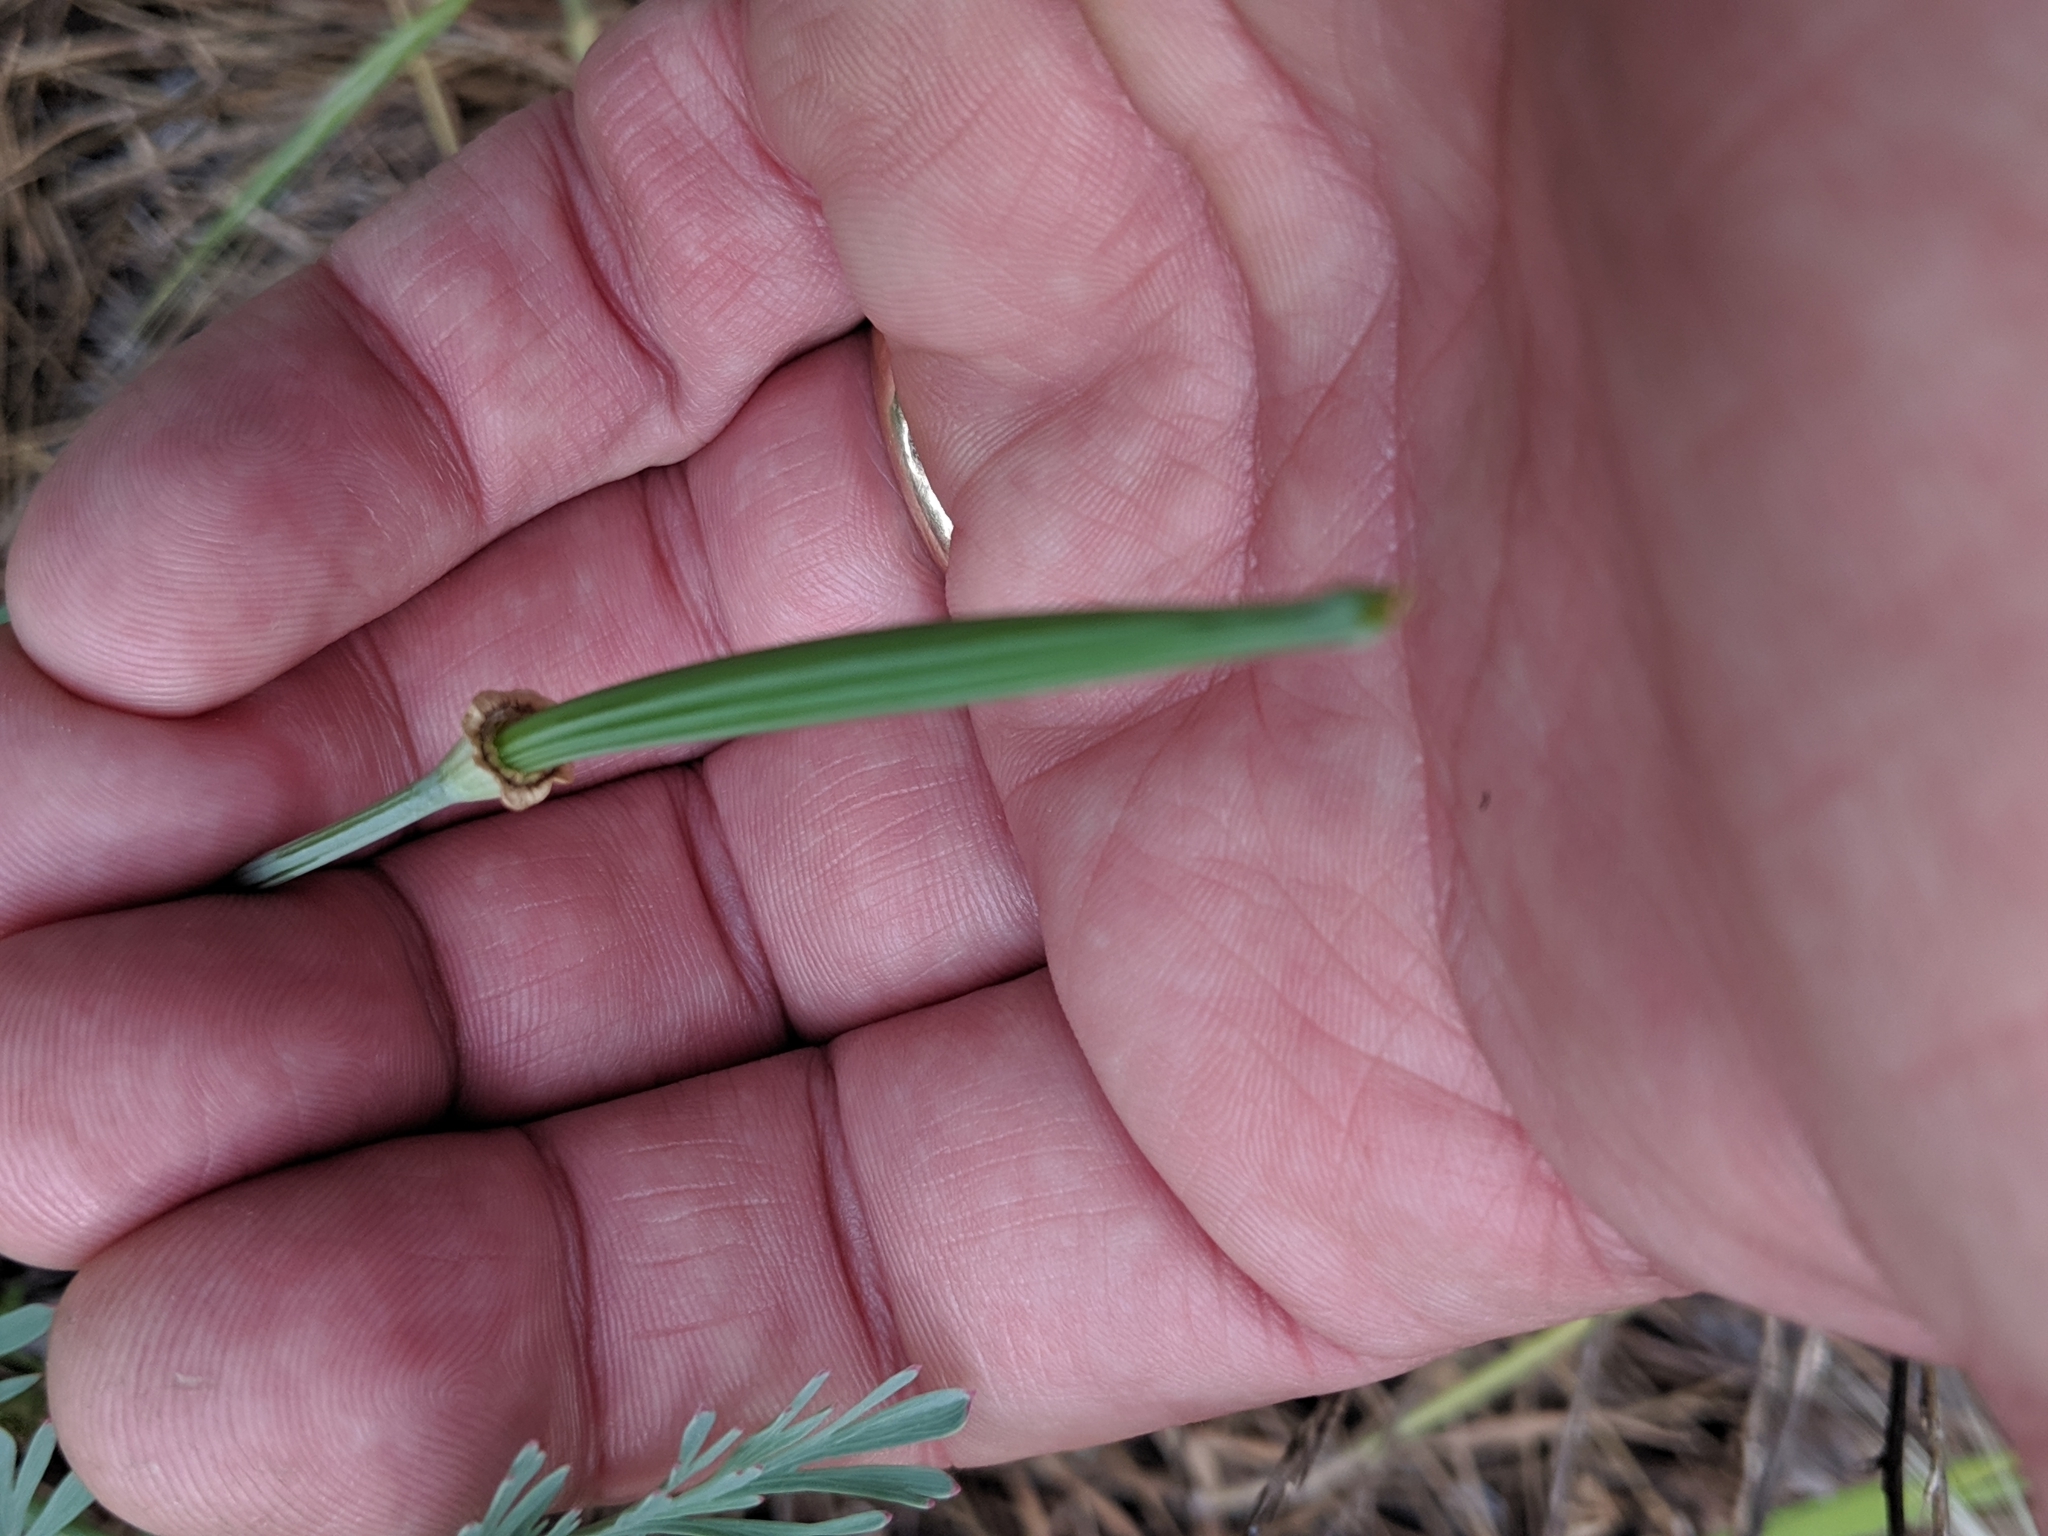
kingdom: Plantae
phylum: Tracheophyta
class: Magnoliopsida
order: Ranunculales
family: Papaveraceae
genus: Eschscholzia
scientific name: Eschscholzia californica
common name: California poppy
